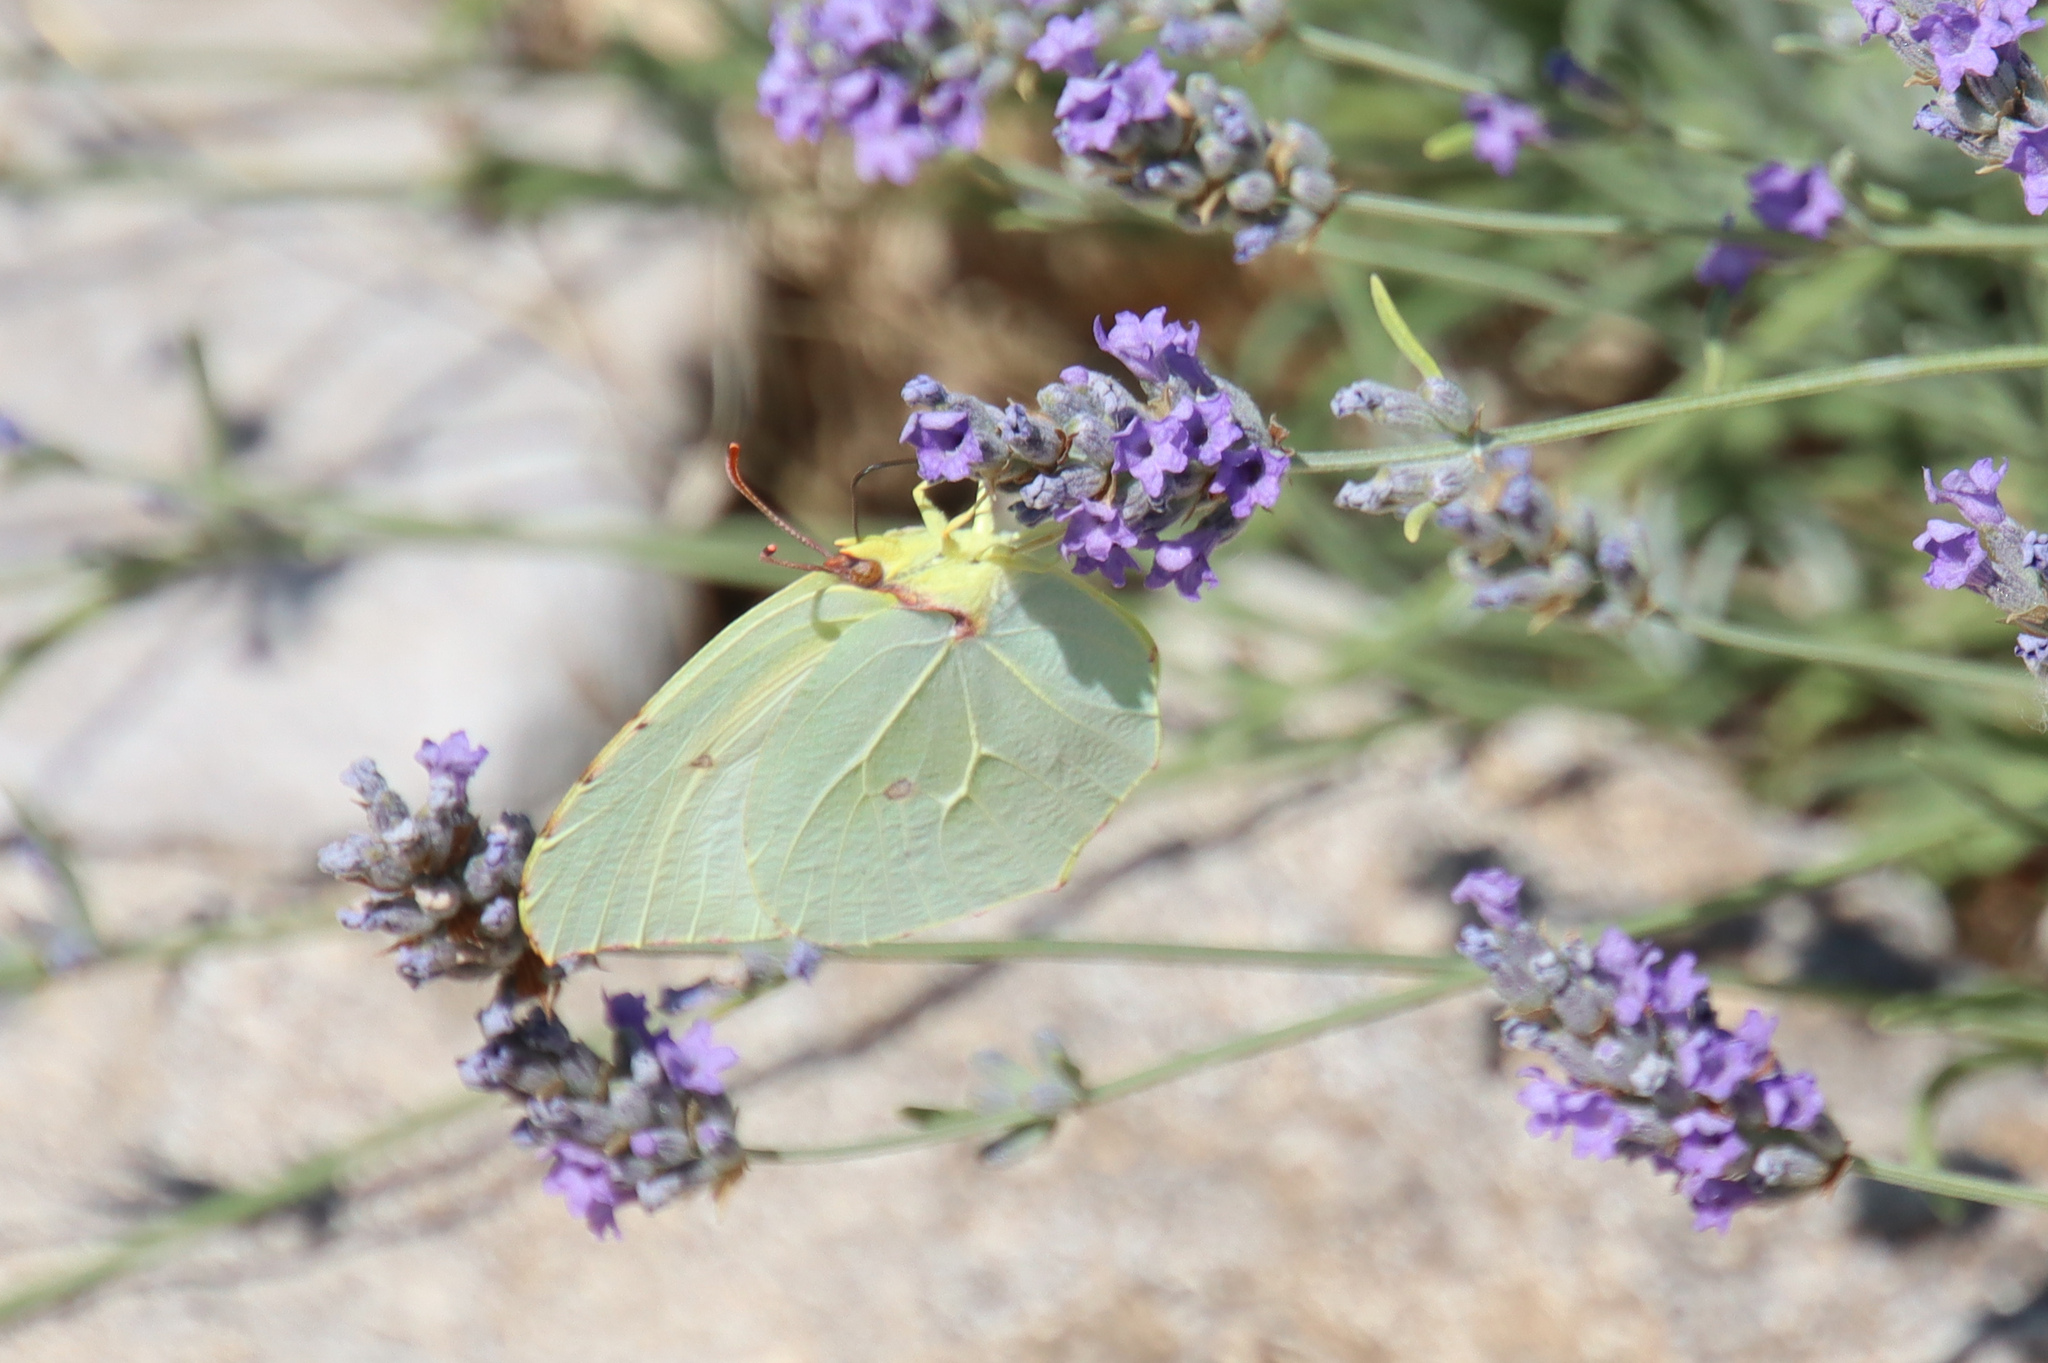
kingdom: Animalia
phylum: Arthropoda
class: Insecta
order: Lepidoptera
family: Pieridae
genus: Gonepteryx
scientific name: Gonepteryx cleopatra
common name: Cleopatra
